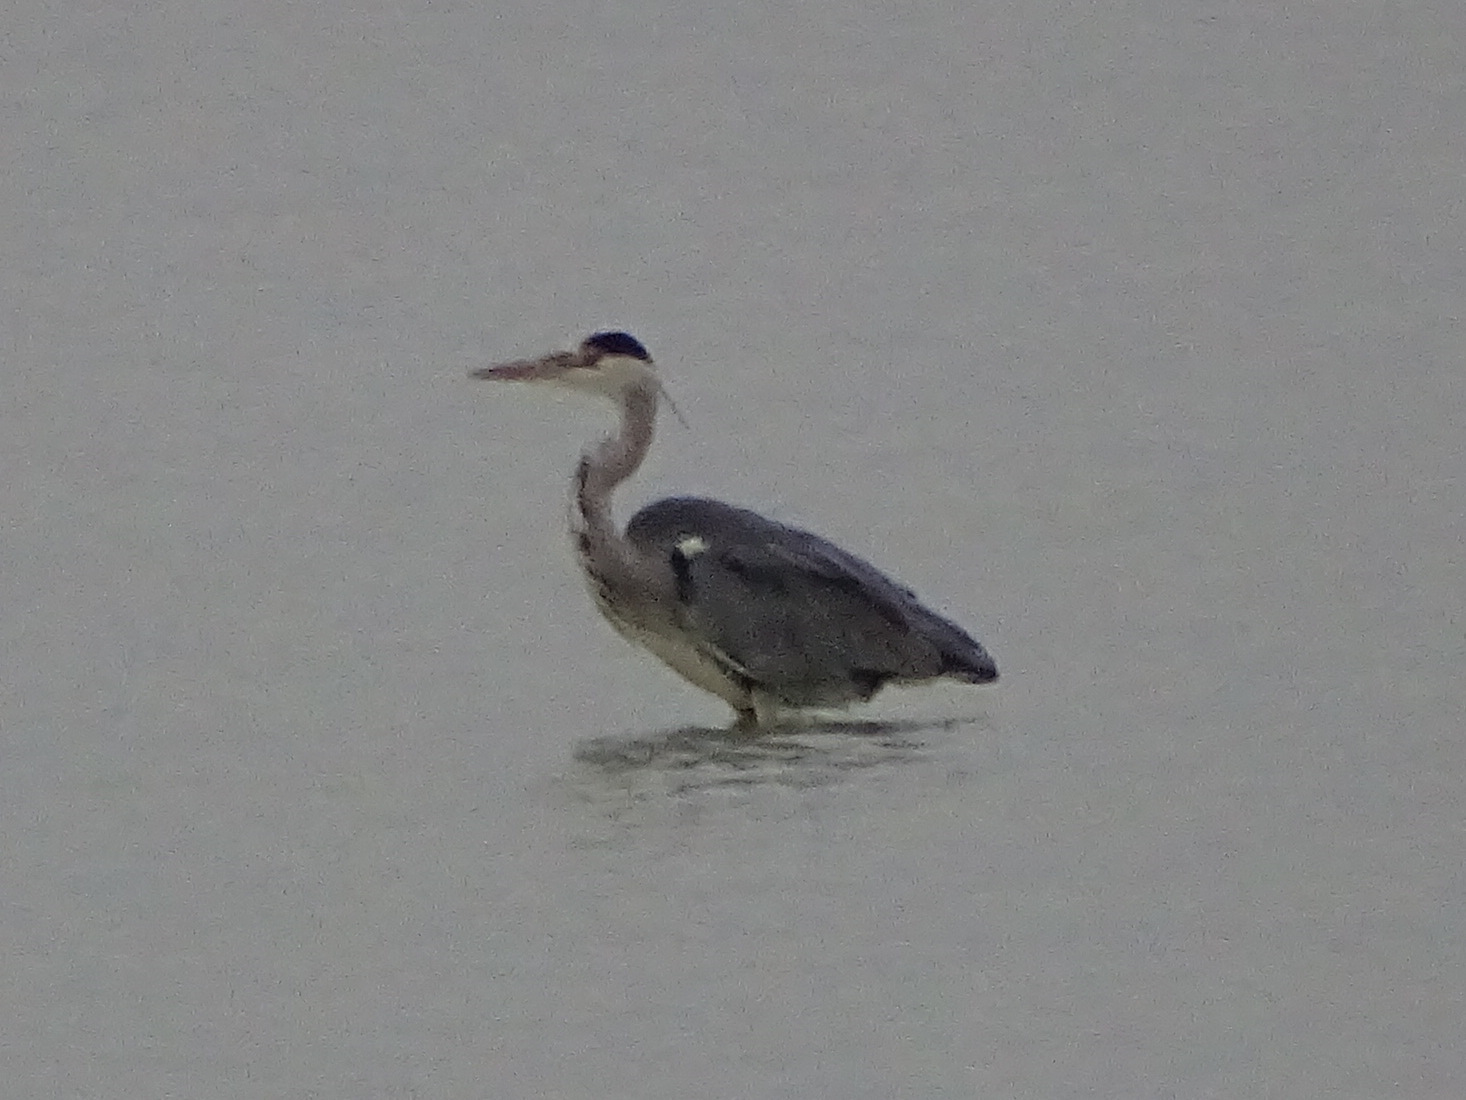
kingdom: Animalia
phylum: Chordata
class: Aves
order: Pelecaniformes
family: Ardeidae
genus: Ardea
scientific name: Ardea cinerea
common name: Grey heron
